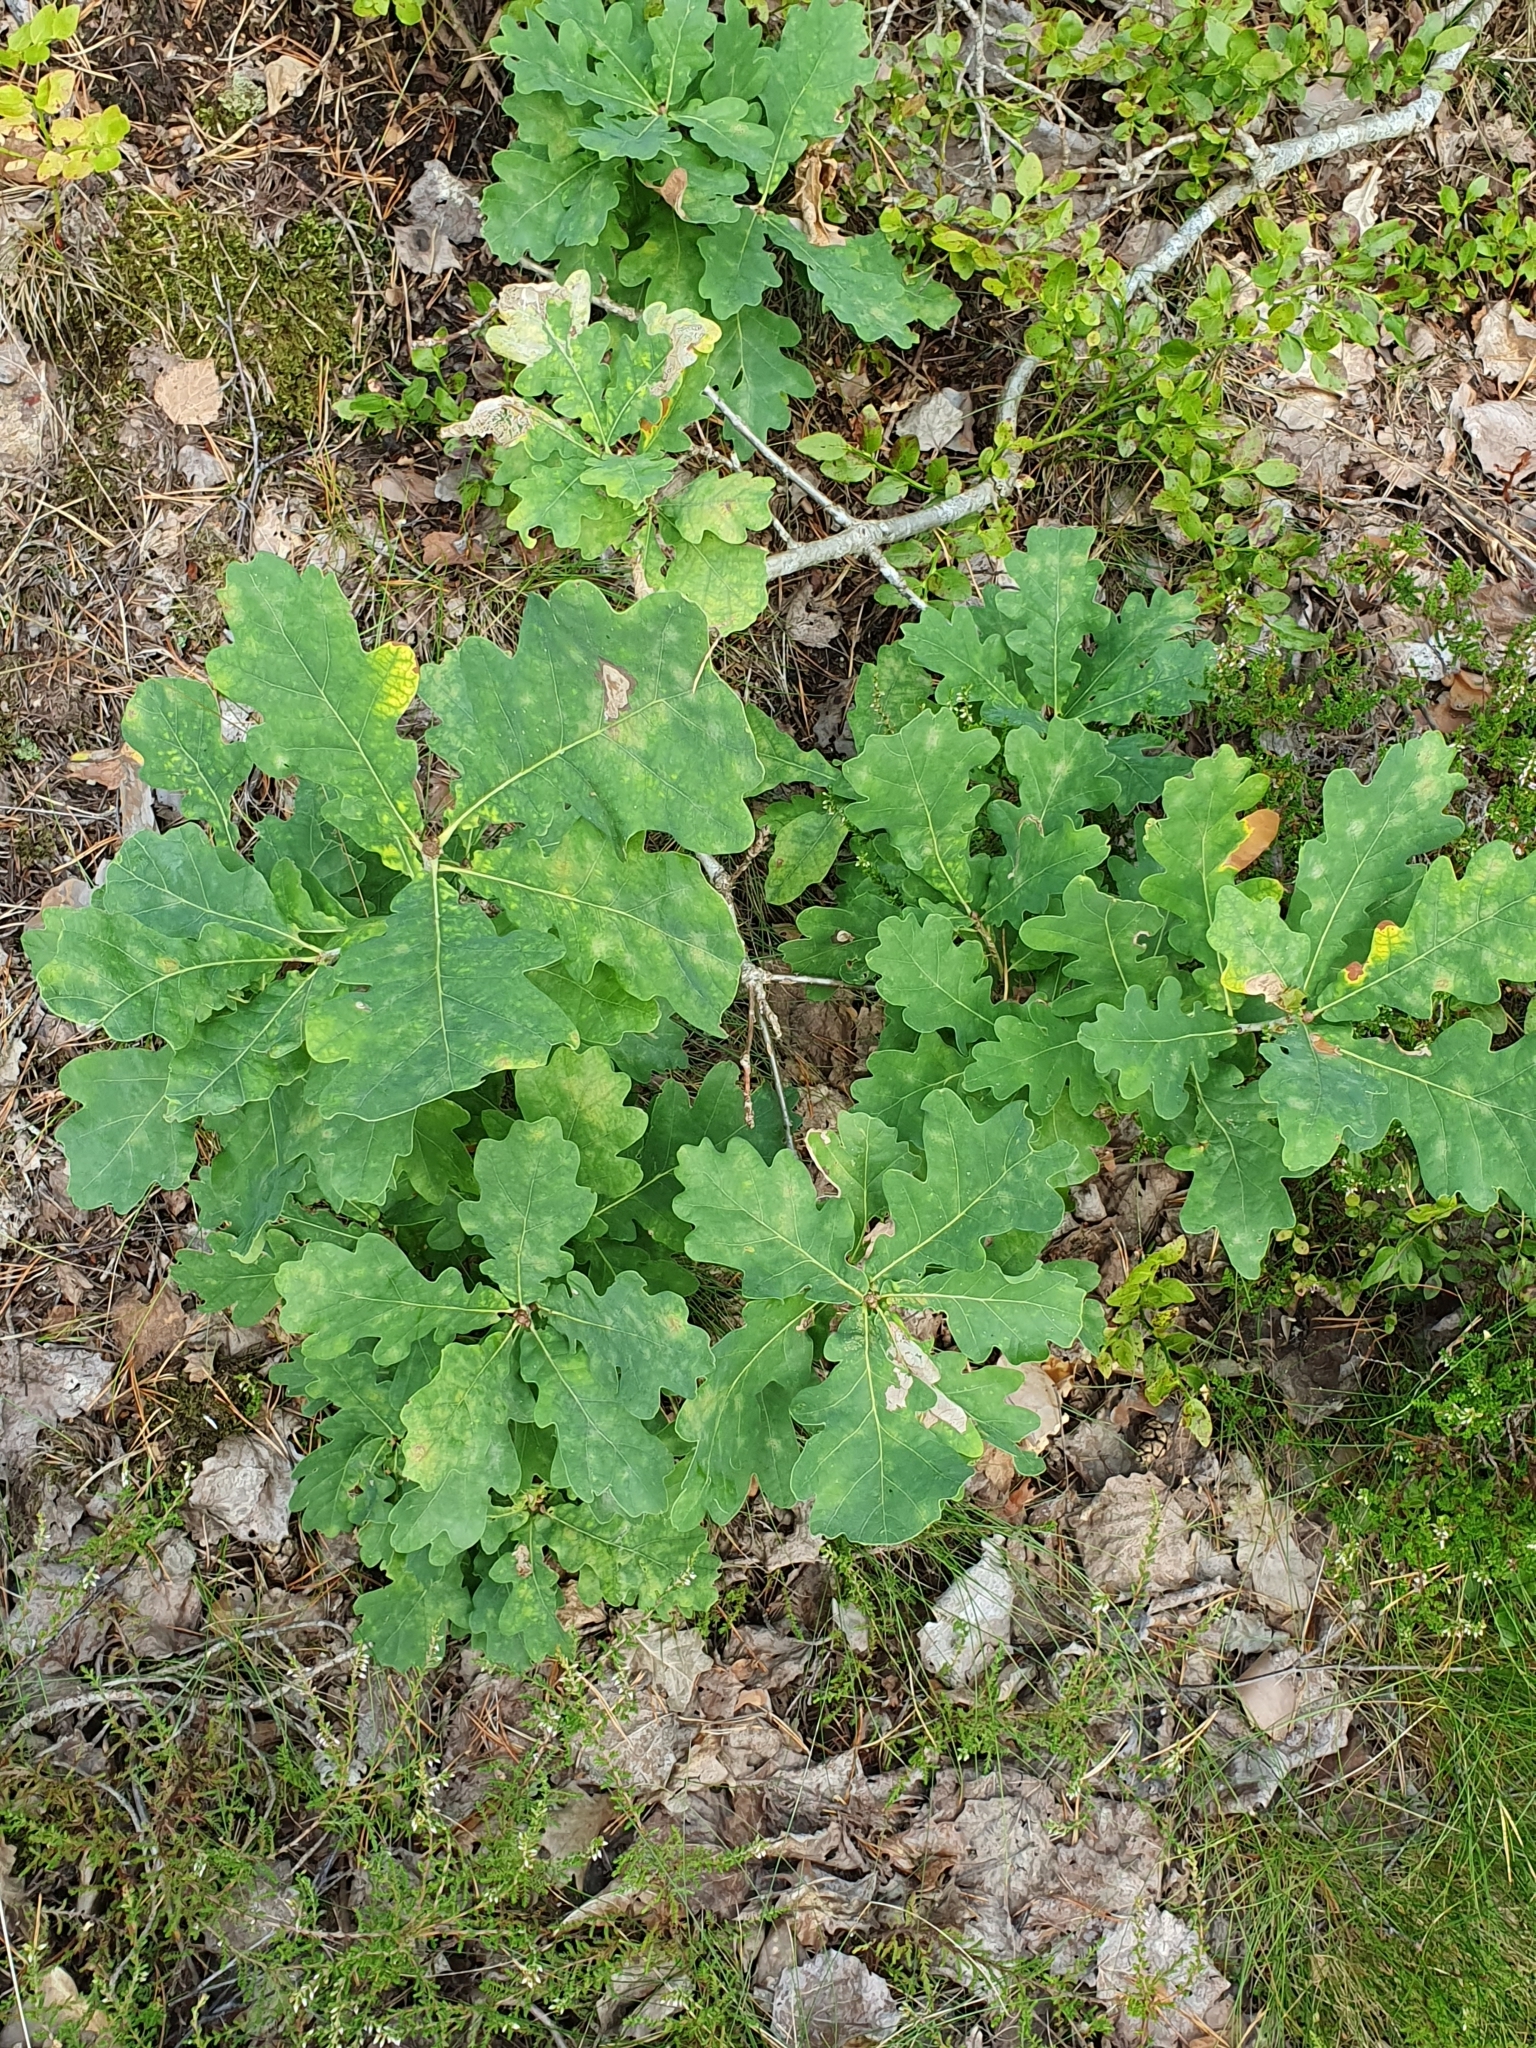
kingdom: Plantae
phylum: Tracheophyta
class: Magnoliopsida
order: Fagales
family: Fagaceae
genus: Quercus
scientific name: Quercus robur
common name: Pedunculate oak
